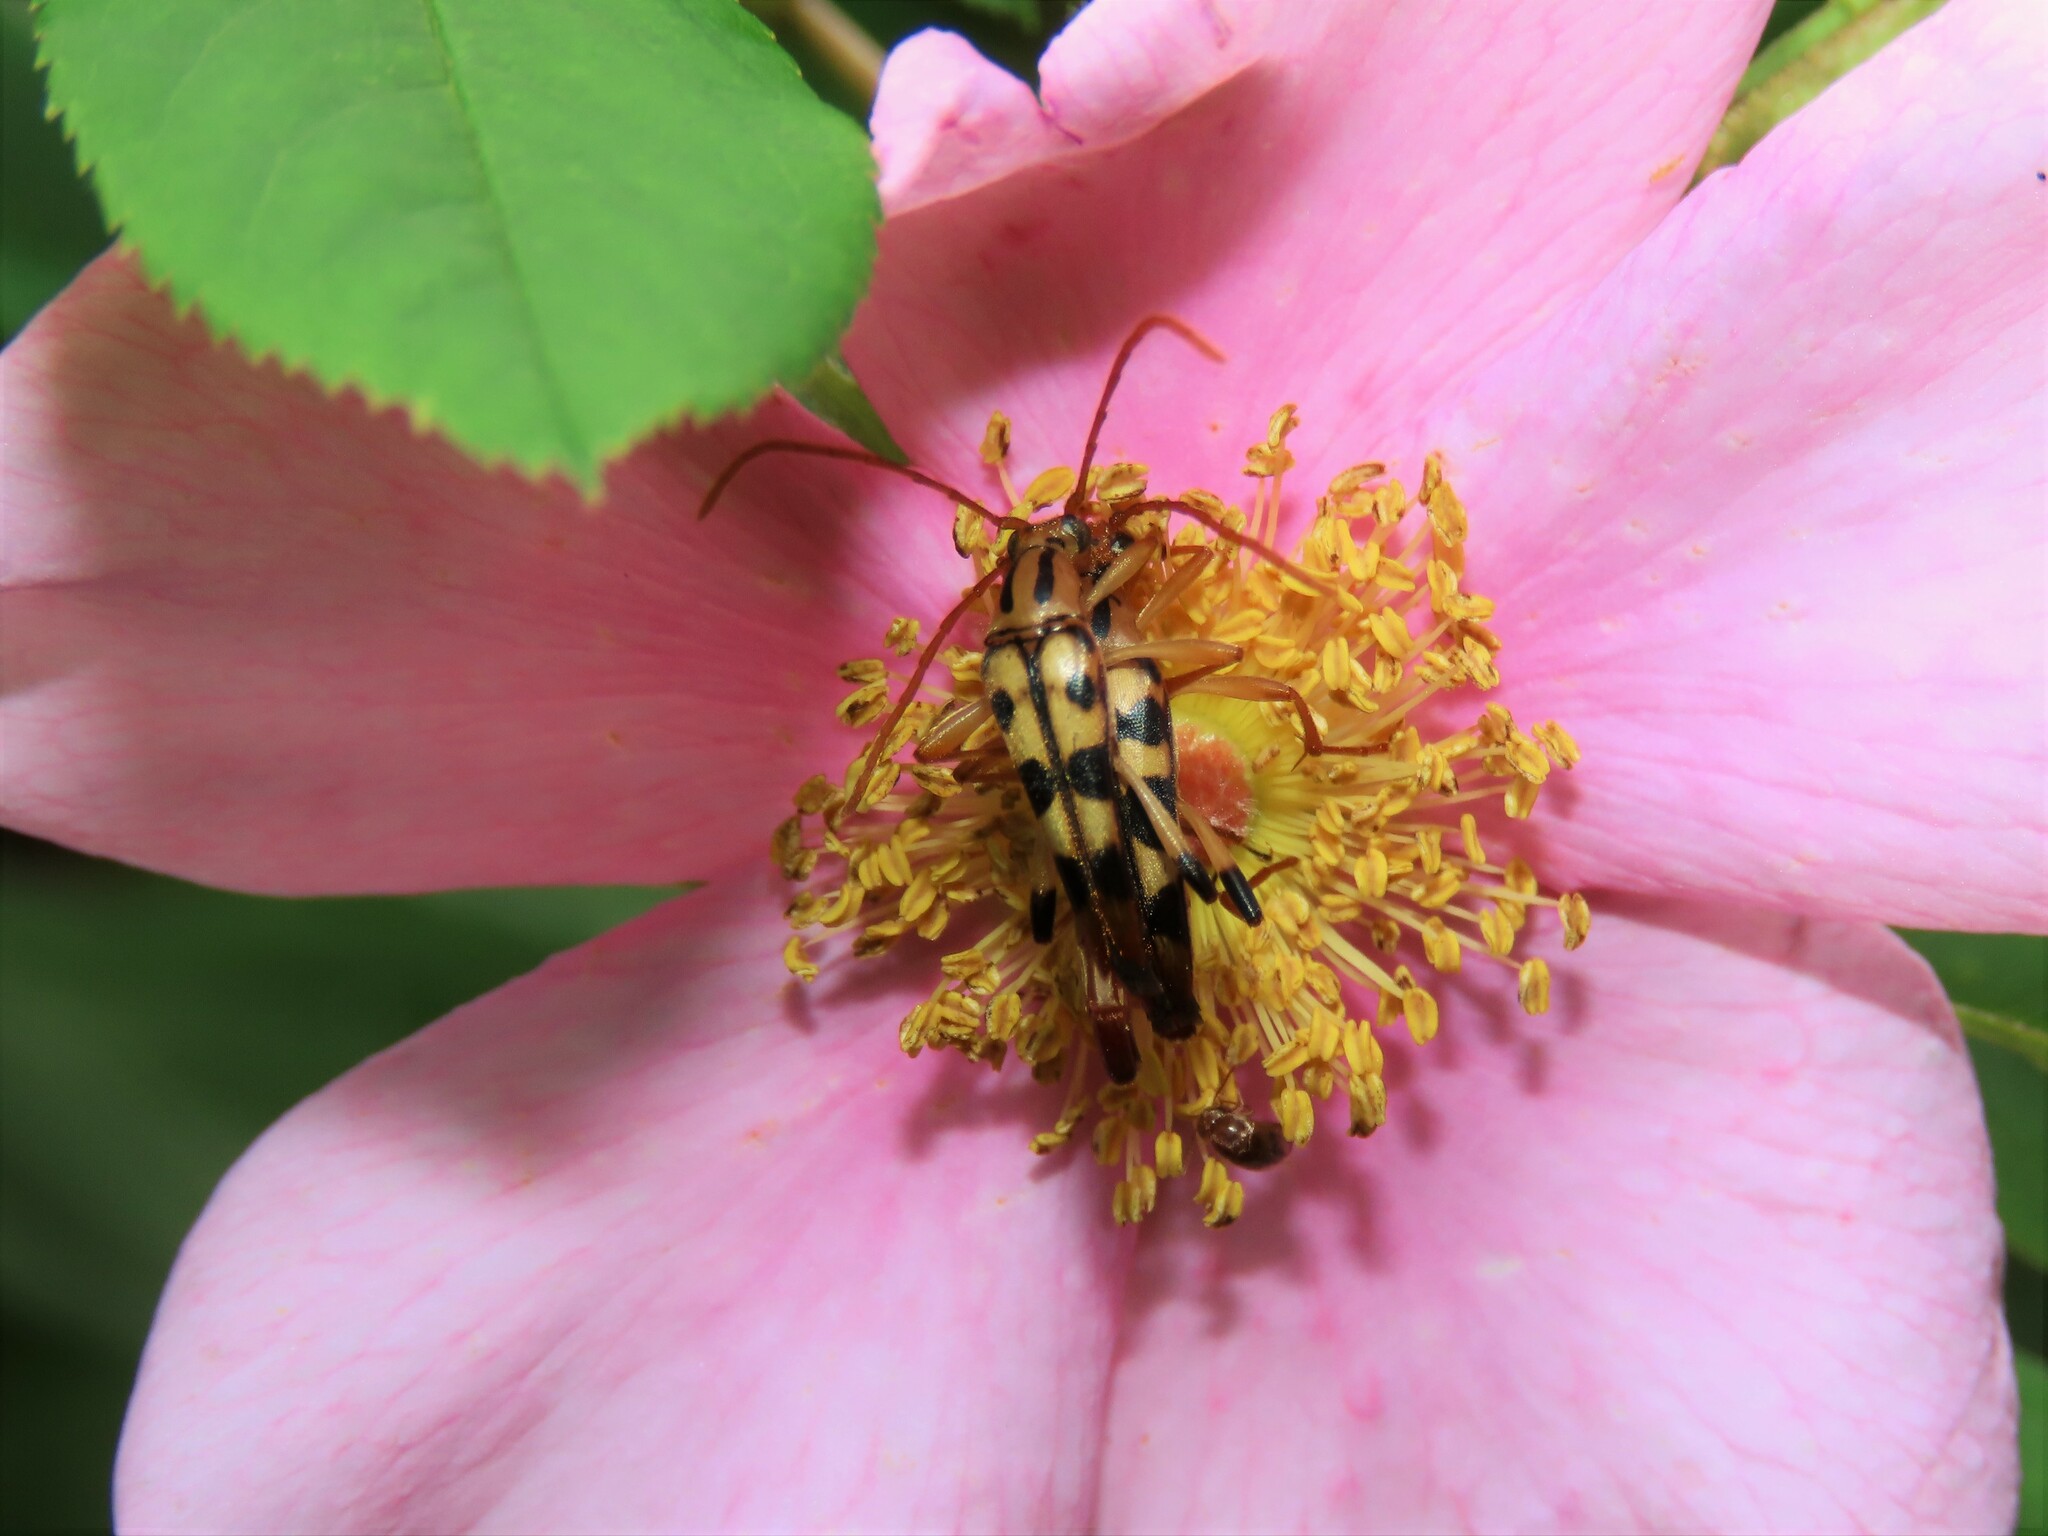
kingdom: Animalia
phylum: Arthropoda
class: Insecta
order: Coleoptera
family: Cerambycidae
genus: Strangalia
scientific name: Strangalia luteicornis
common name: Yellow-horned flower longhorn beetle
